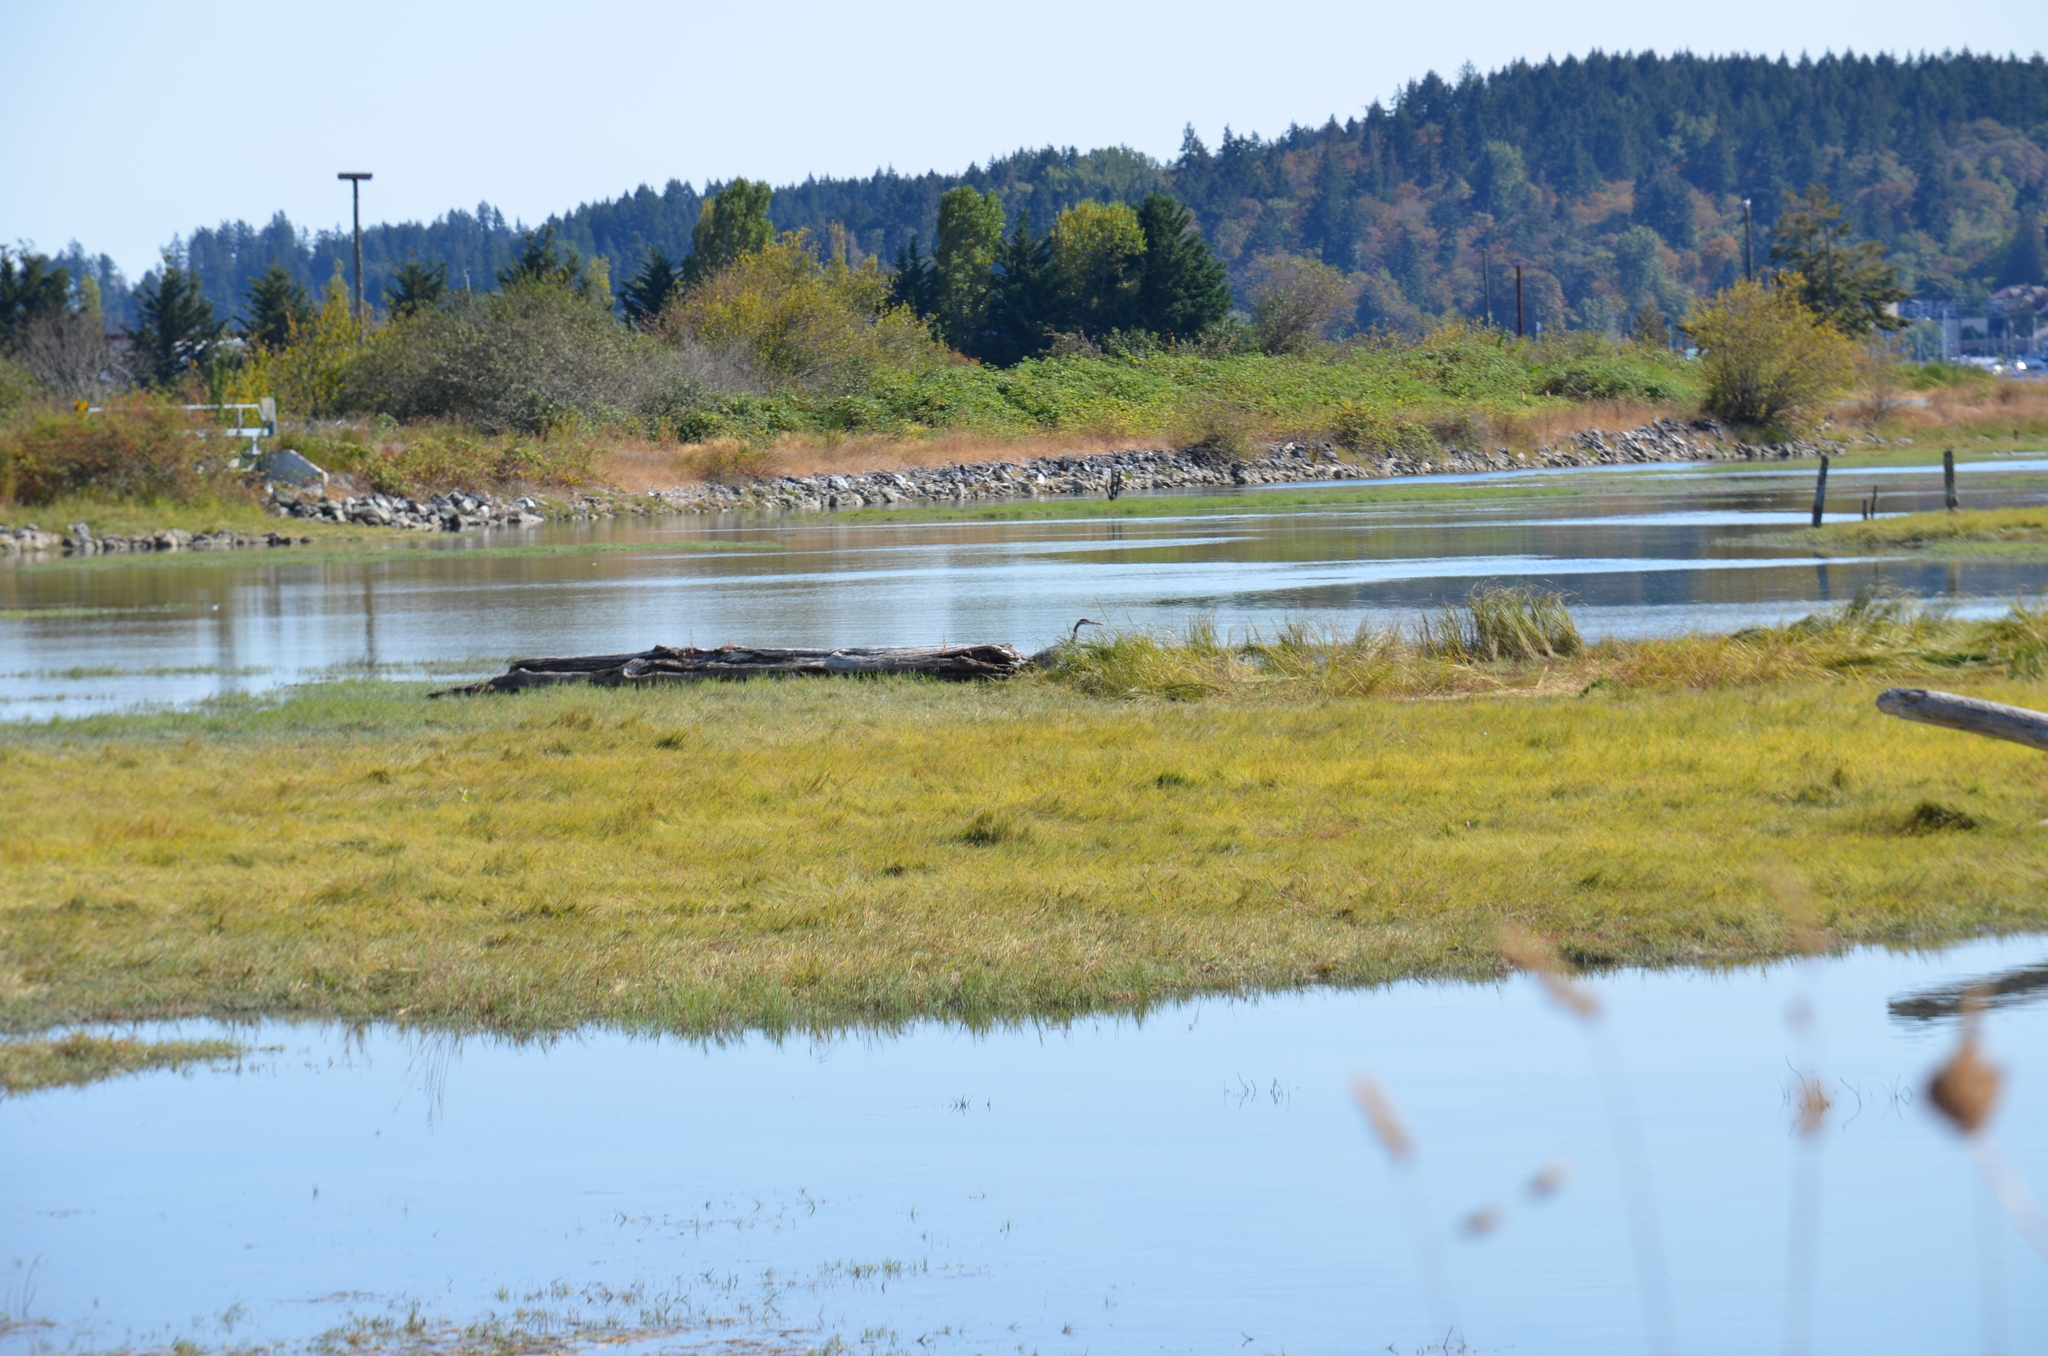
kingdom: Animalia
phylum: Chordata
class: Aves
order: Pelecaniformes
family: Ardeidae
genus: Ardea
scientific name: Ardea herodias
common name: Great blue heron
